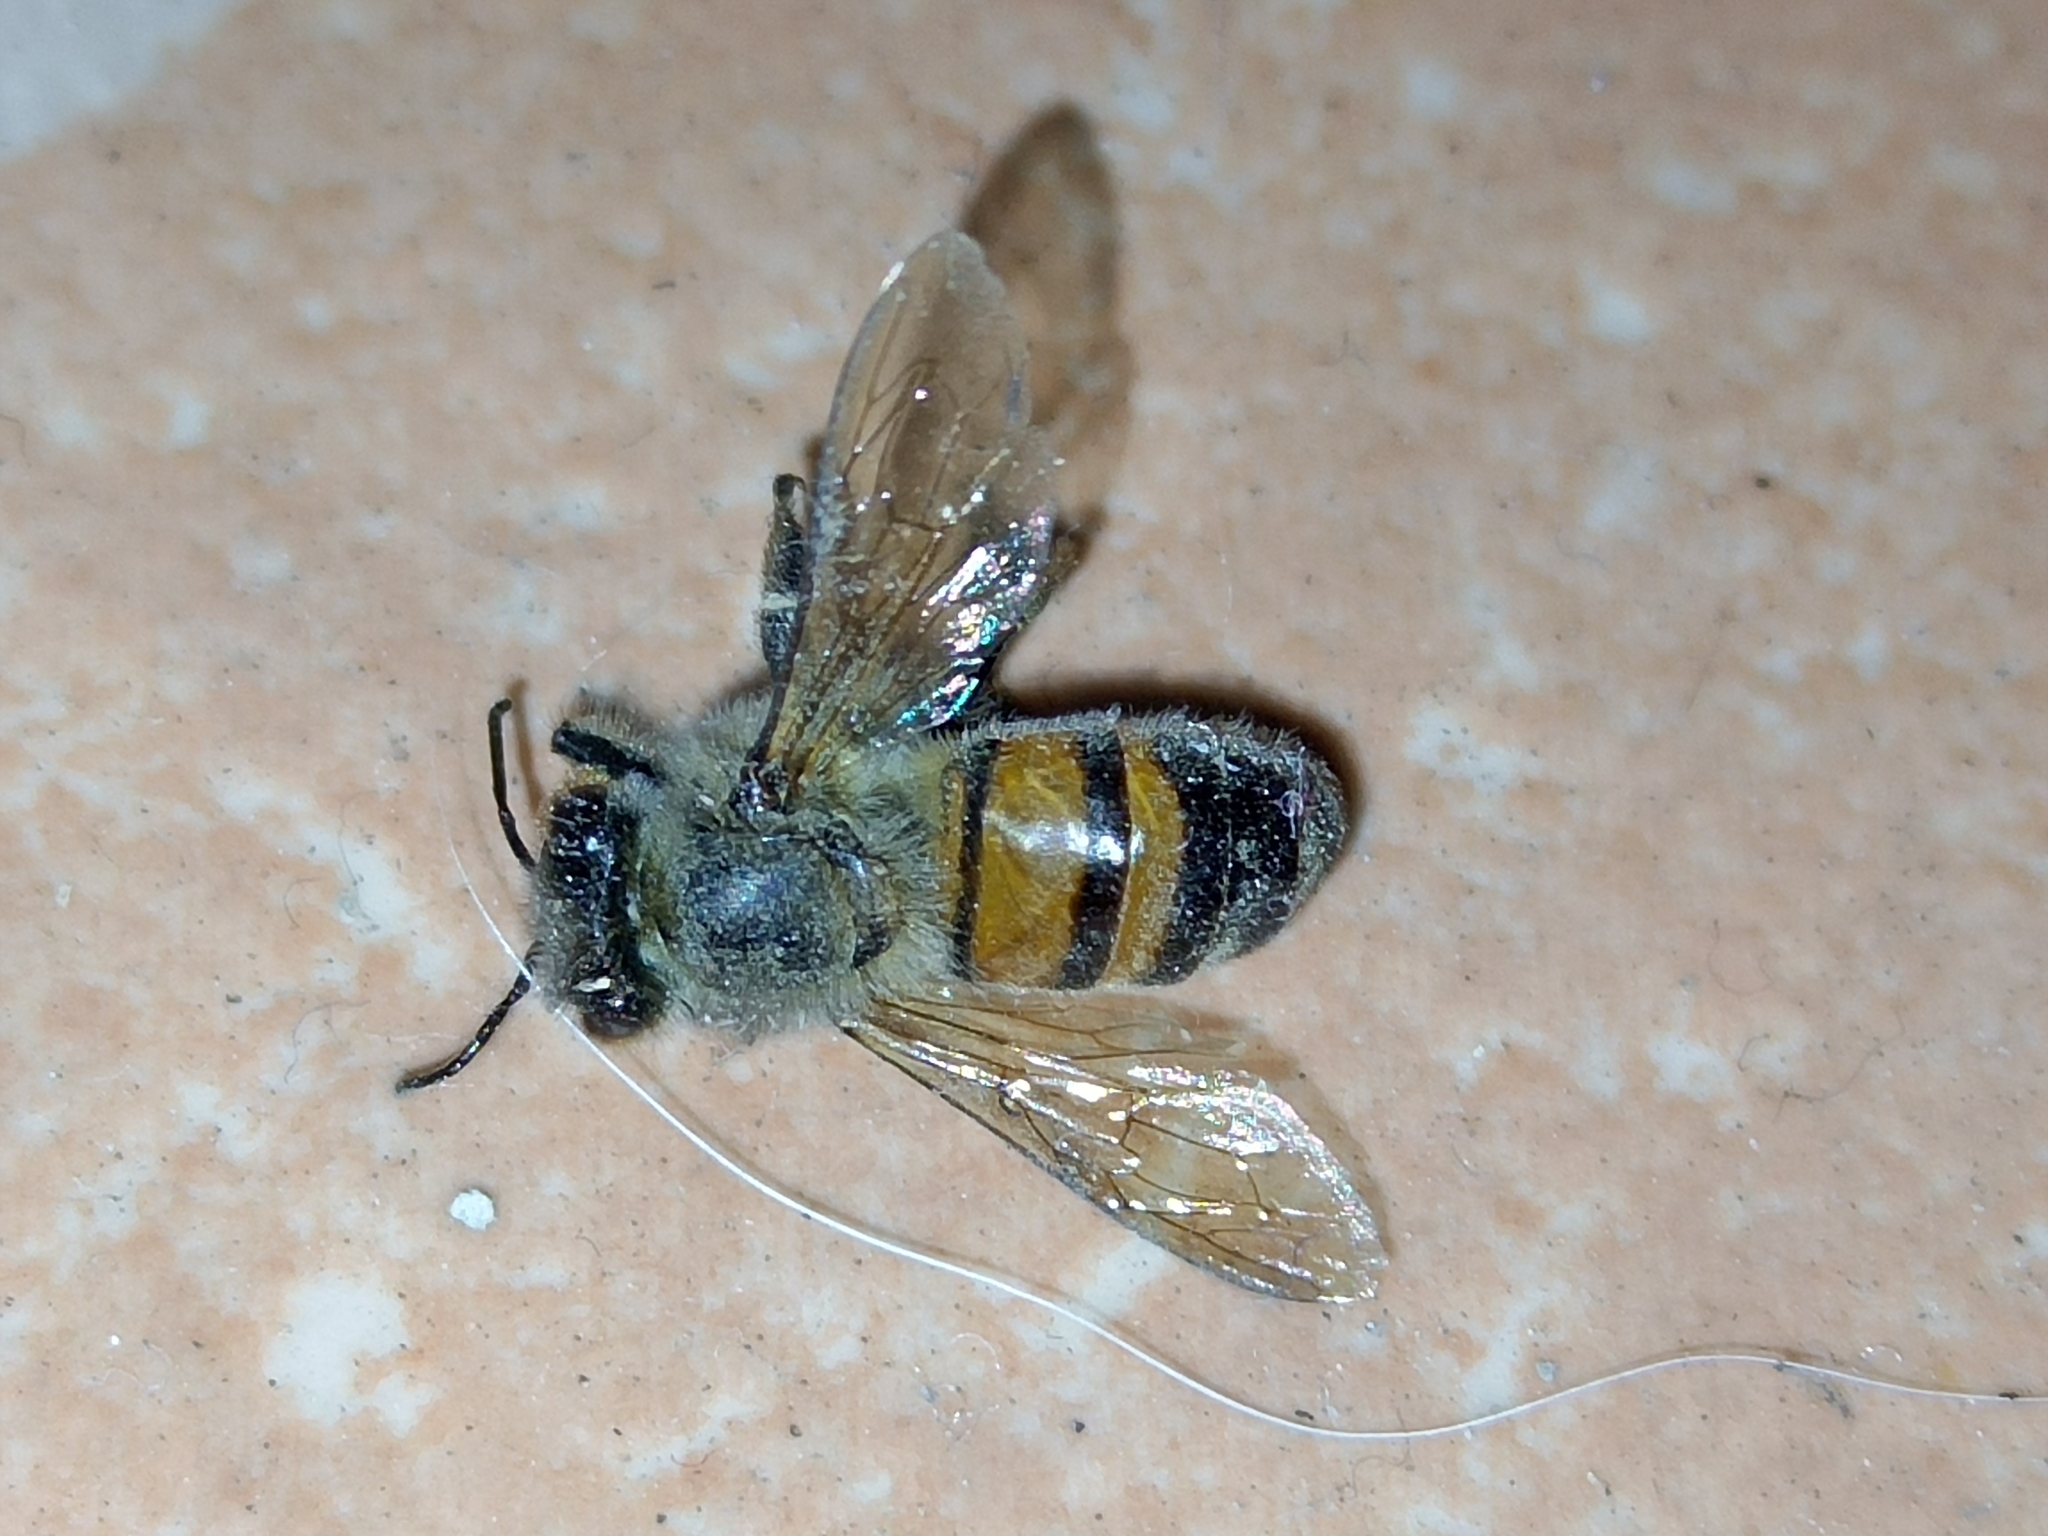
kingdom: Animalia
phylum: Arthropoda
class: Insecta
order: Hymenoptera
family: Apidae
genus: Apis
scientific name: Apis mellifera
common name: Honey bee
